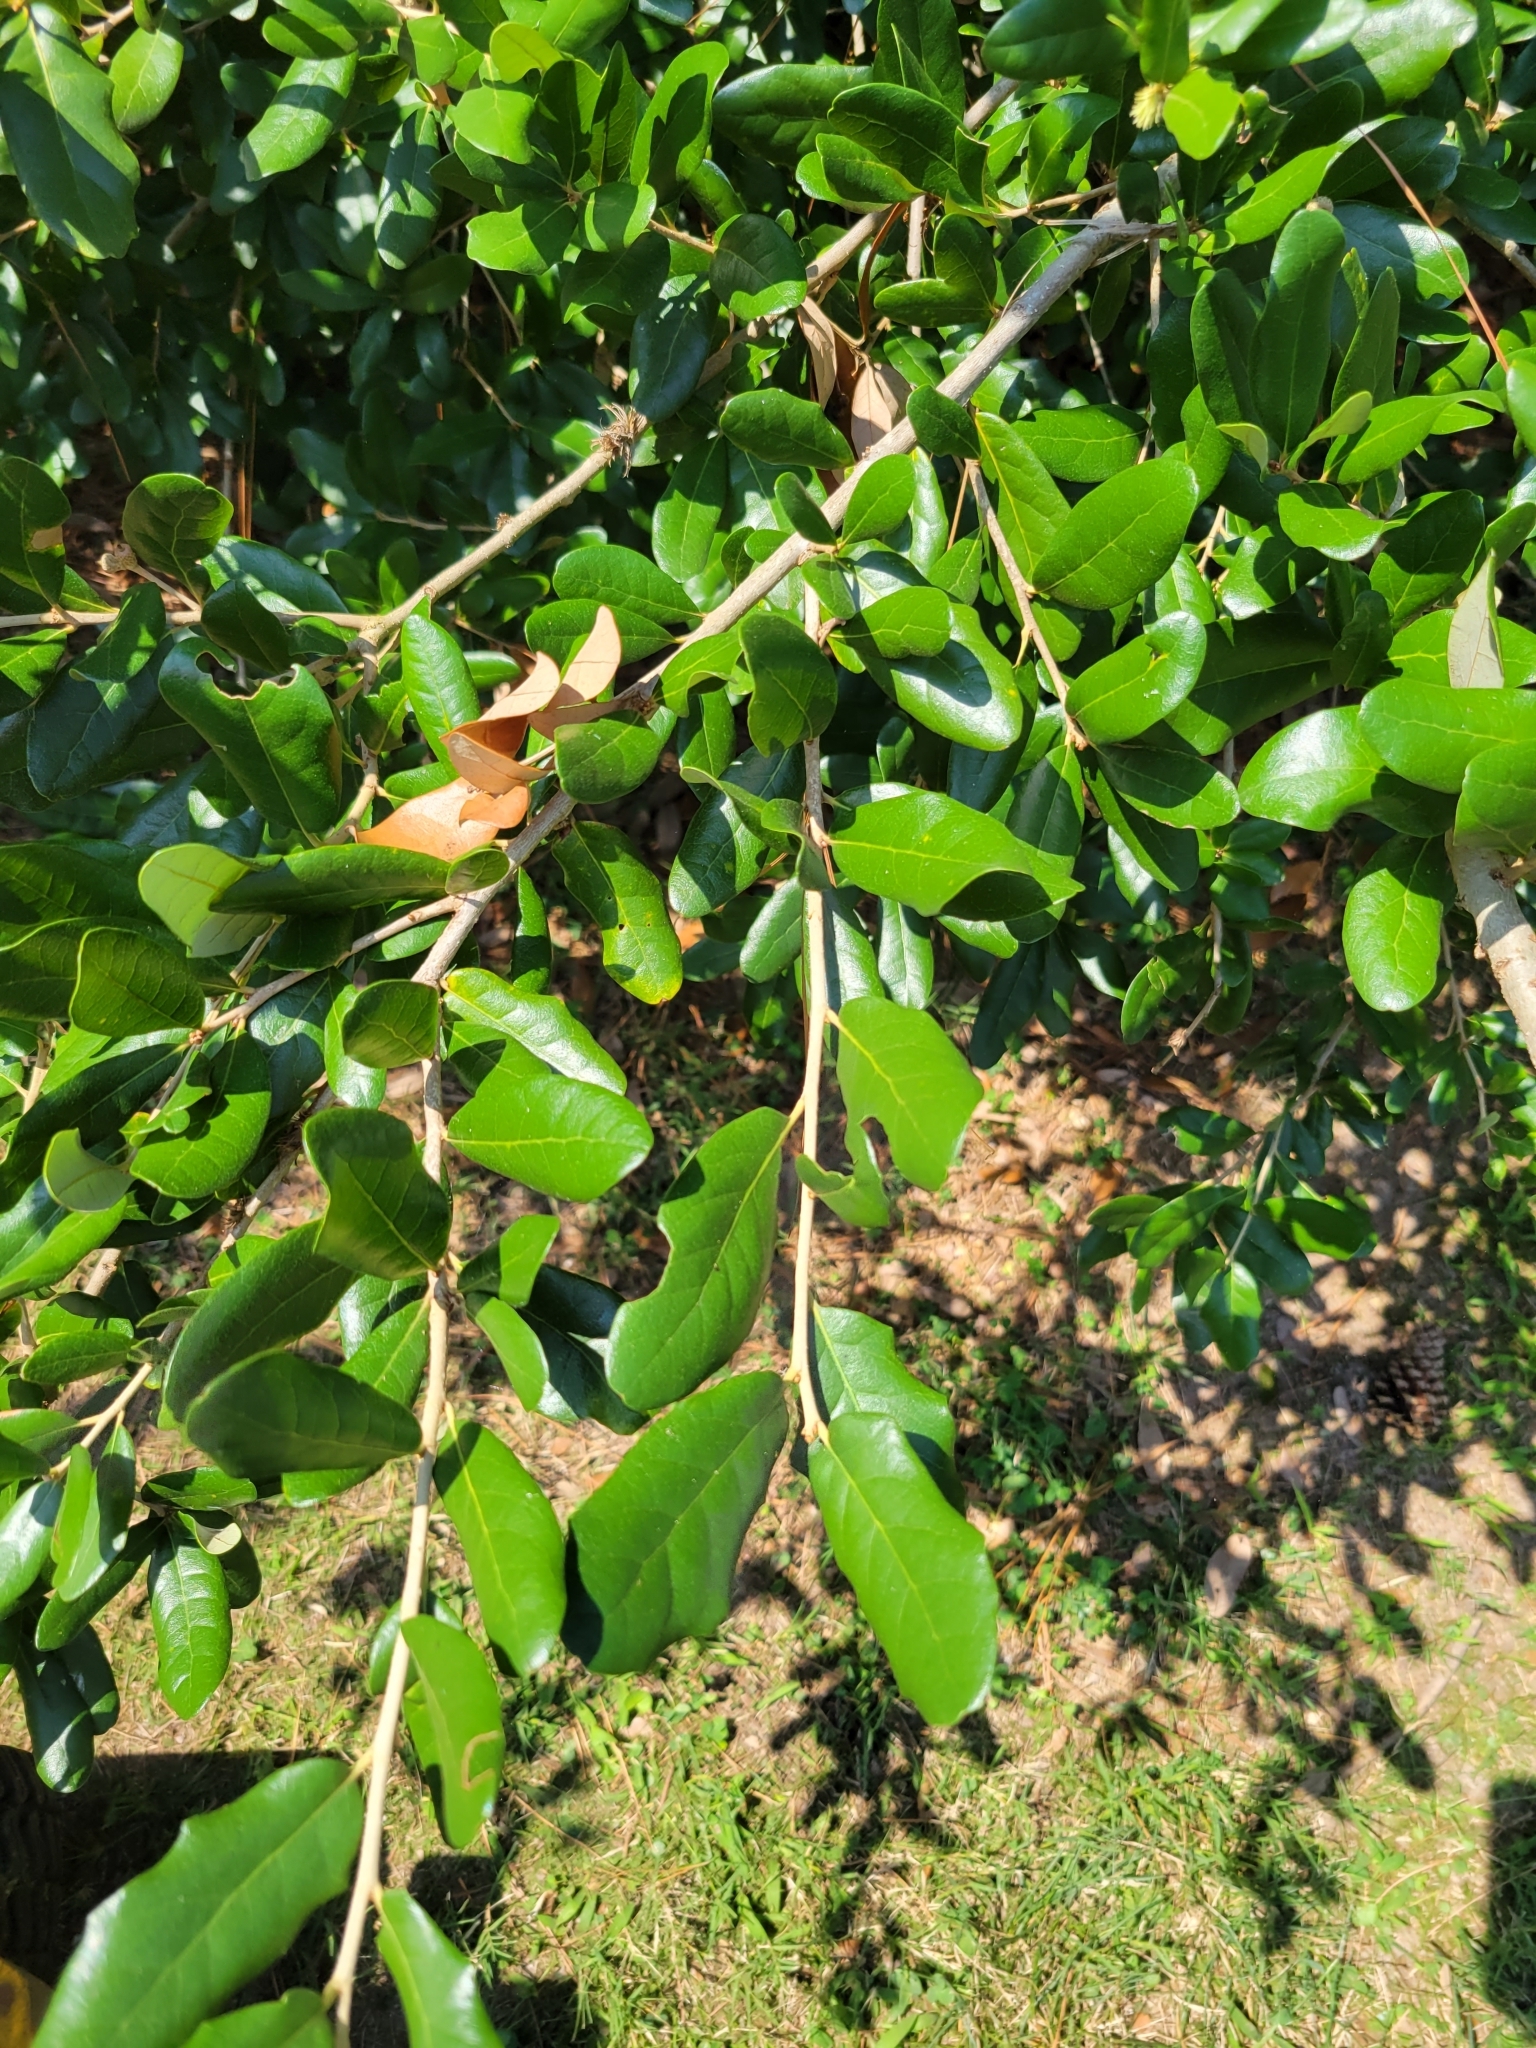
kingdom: Plantae
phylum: Tracheophyta
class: Magnoliopsida
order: Fagales
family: Fagaceae
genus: Quercus
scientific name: Quercus virginiana
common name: Southern live oak
